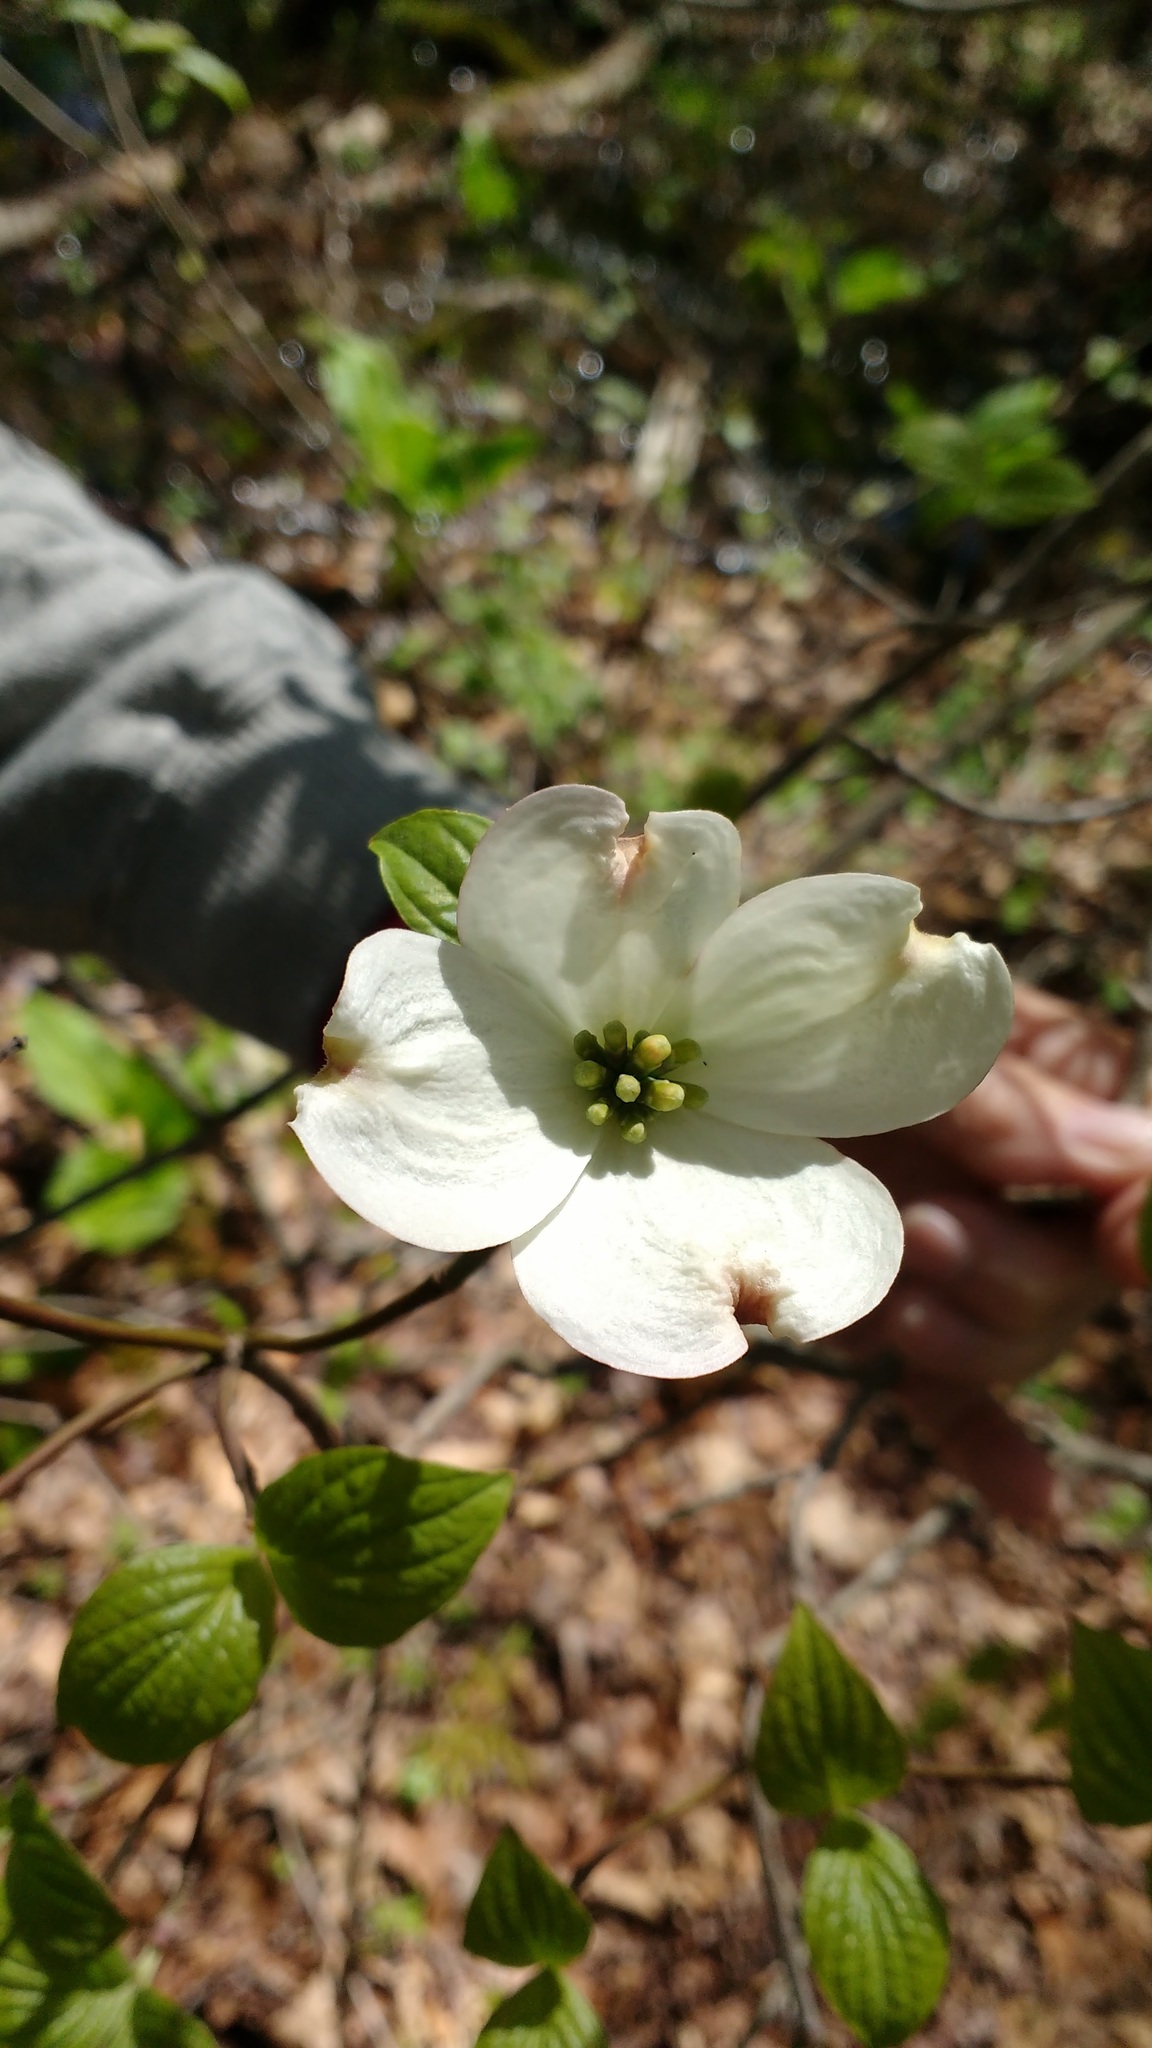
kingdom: Plantae
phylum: Tracheophyta
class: Magnoliopsida
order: Cornales
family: Cornaceae
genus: Cornus
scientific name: Cornus florida
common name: Flowering dogwood
